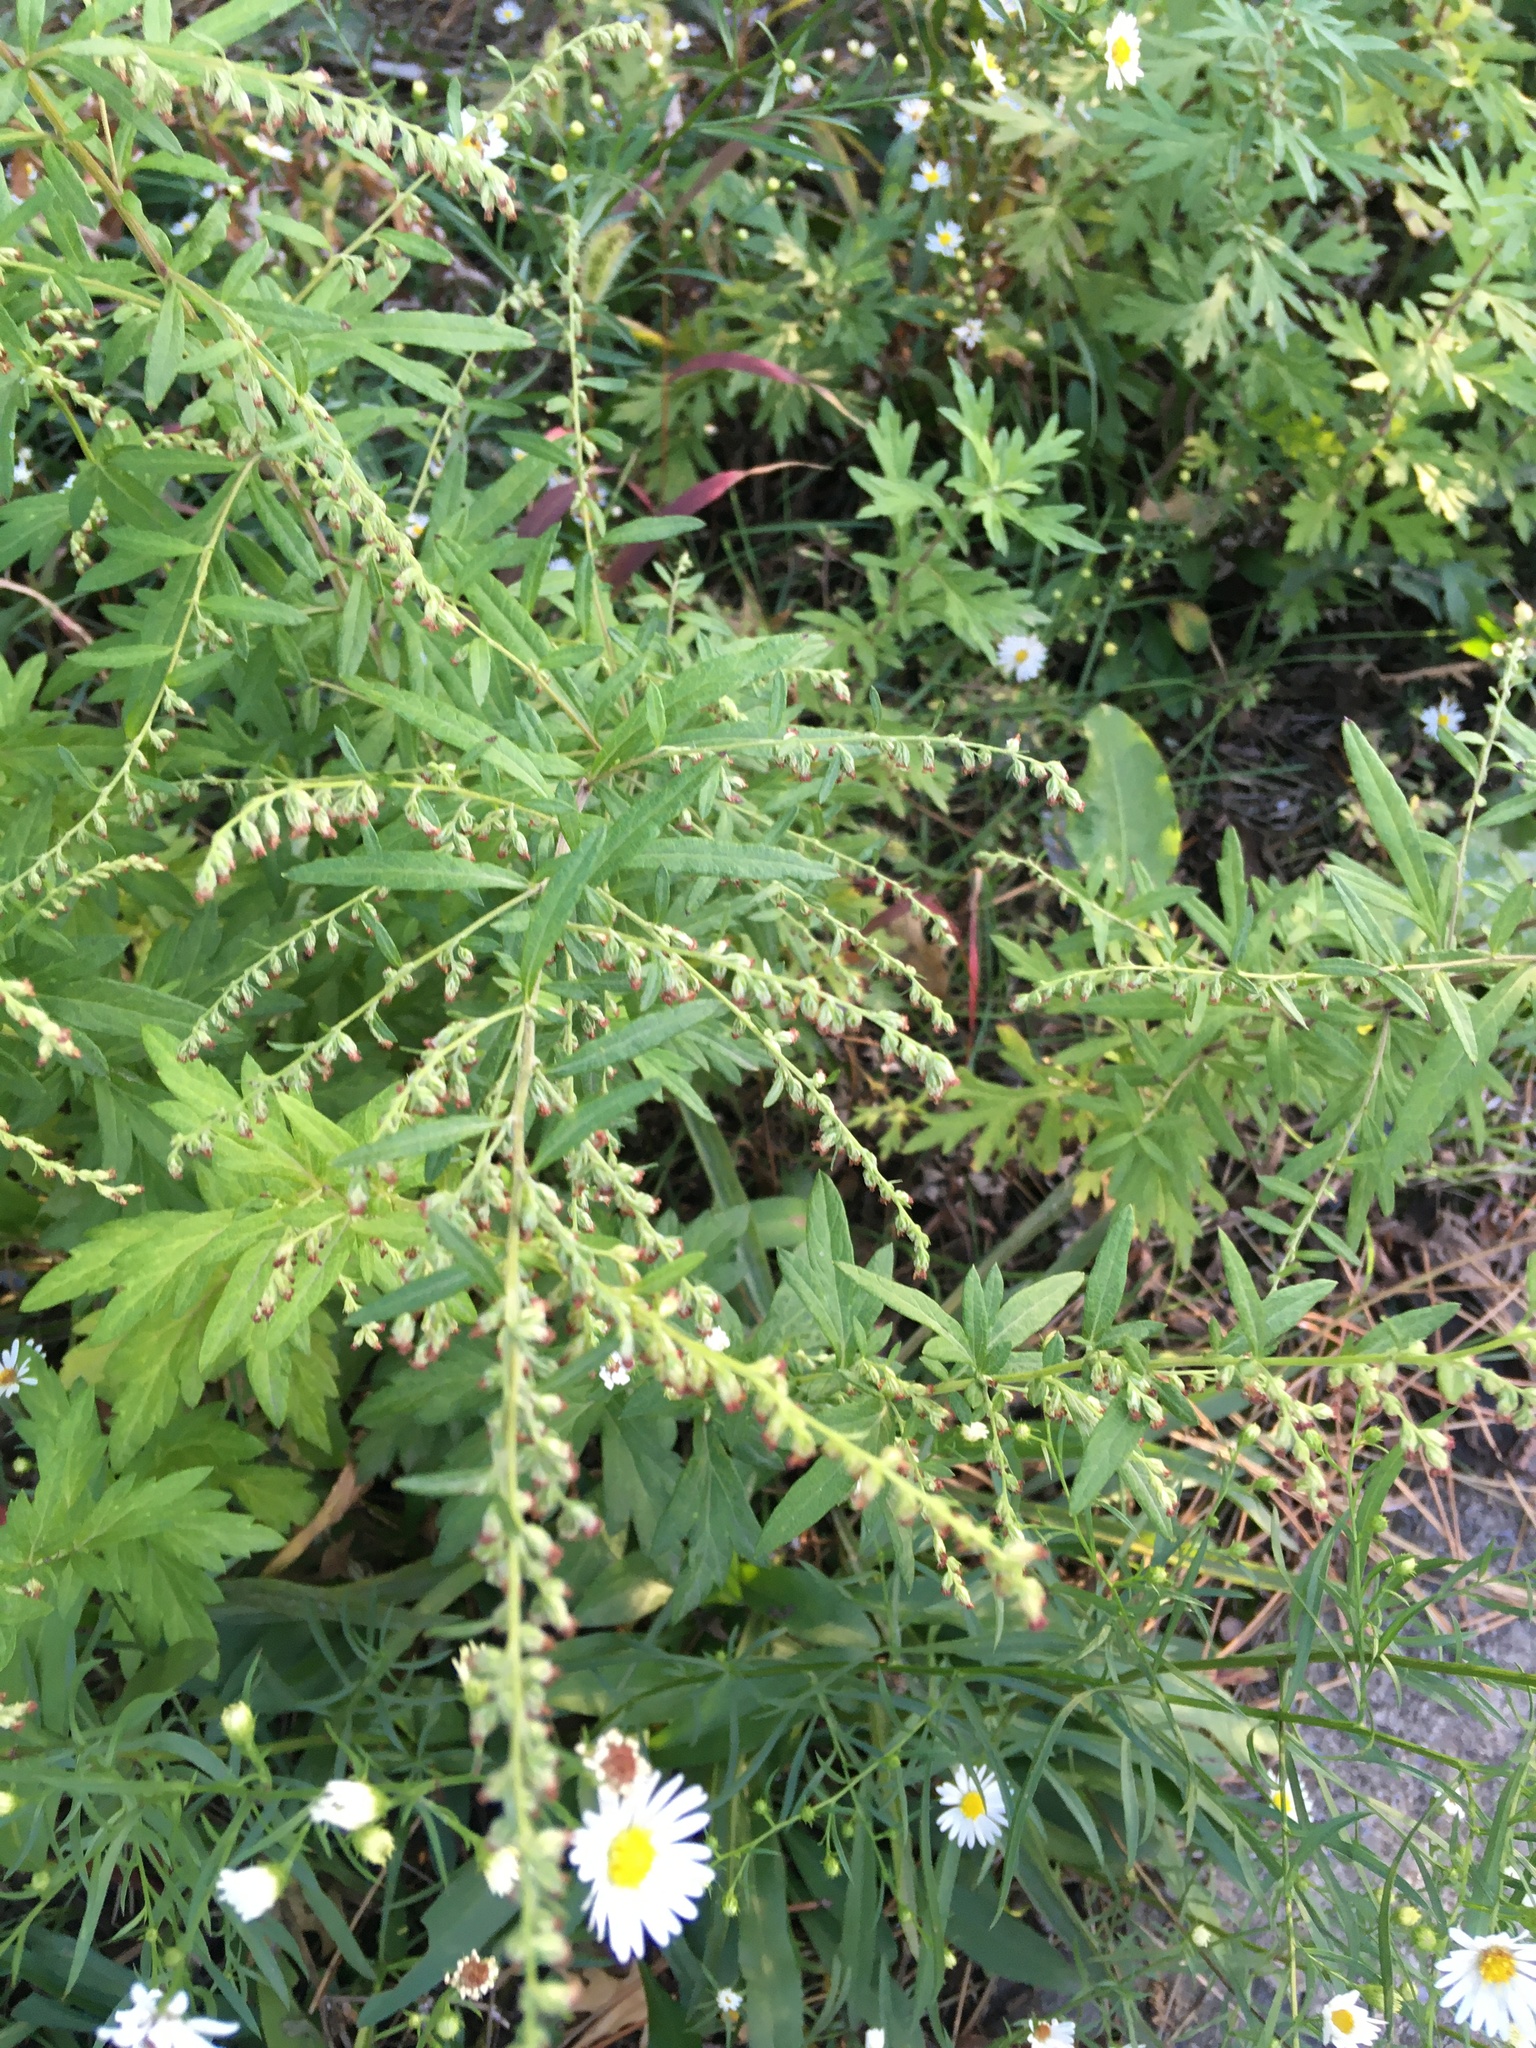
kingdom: Plantae
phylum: Tracheophyta
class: Magnoliopsida
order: Asterales
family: Asteraceae
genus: Artemisia
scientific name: Artemisia vulgaris
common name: Mugwort
